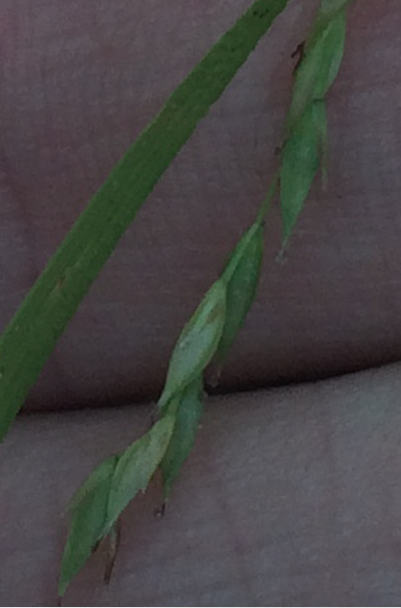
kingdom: Plantae
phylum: Tracheophyta
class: Liliopsida
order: Poales
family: Cyperaceae
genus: Carex
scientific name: Carex debilis
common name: White-edge sedge
